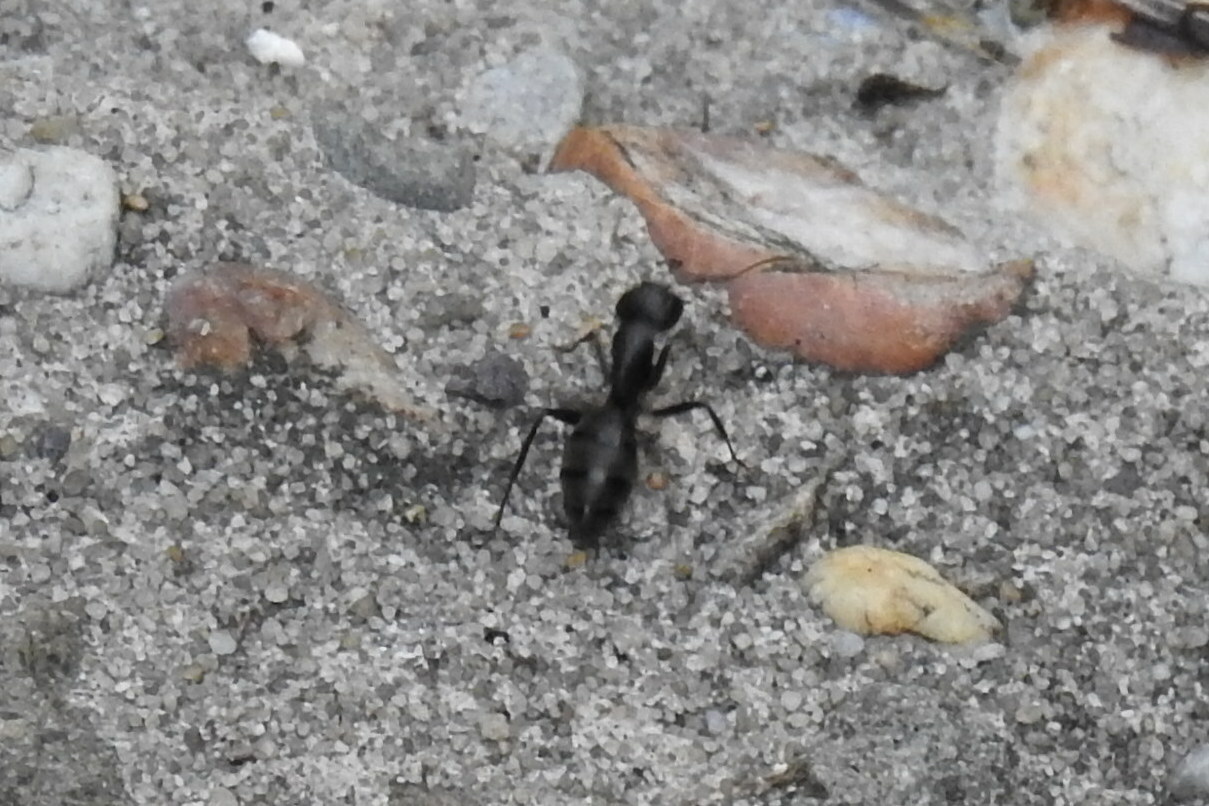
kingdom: Animalia
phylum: Arthropoda
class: Insecta
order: Hymenoptera
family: Formicidae
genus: Camponotus
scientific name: Camponotus pennsylvanicus
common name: Black carpenter ant
